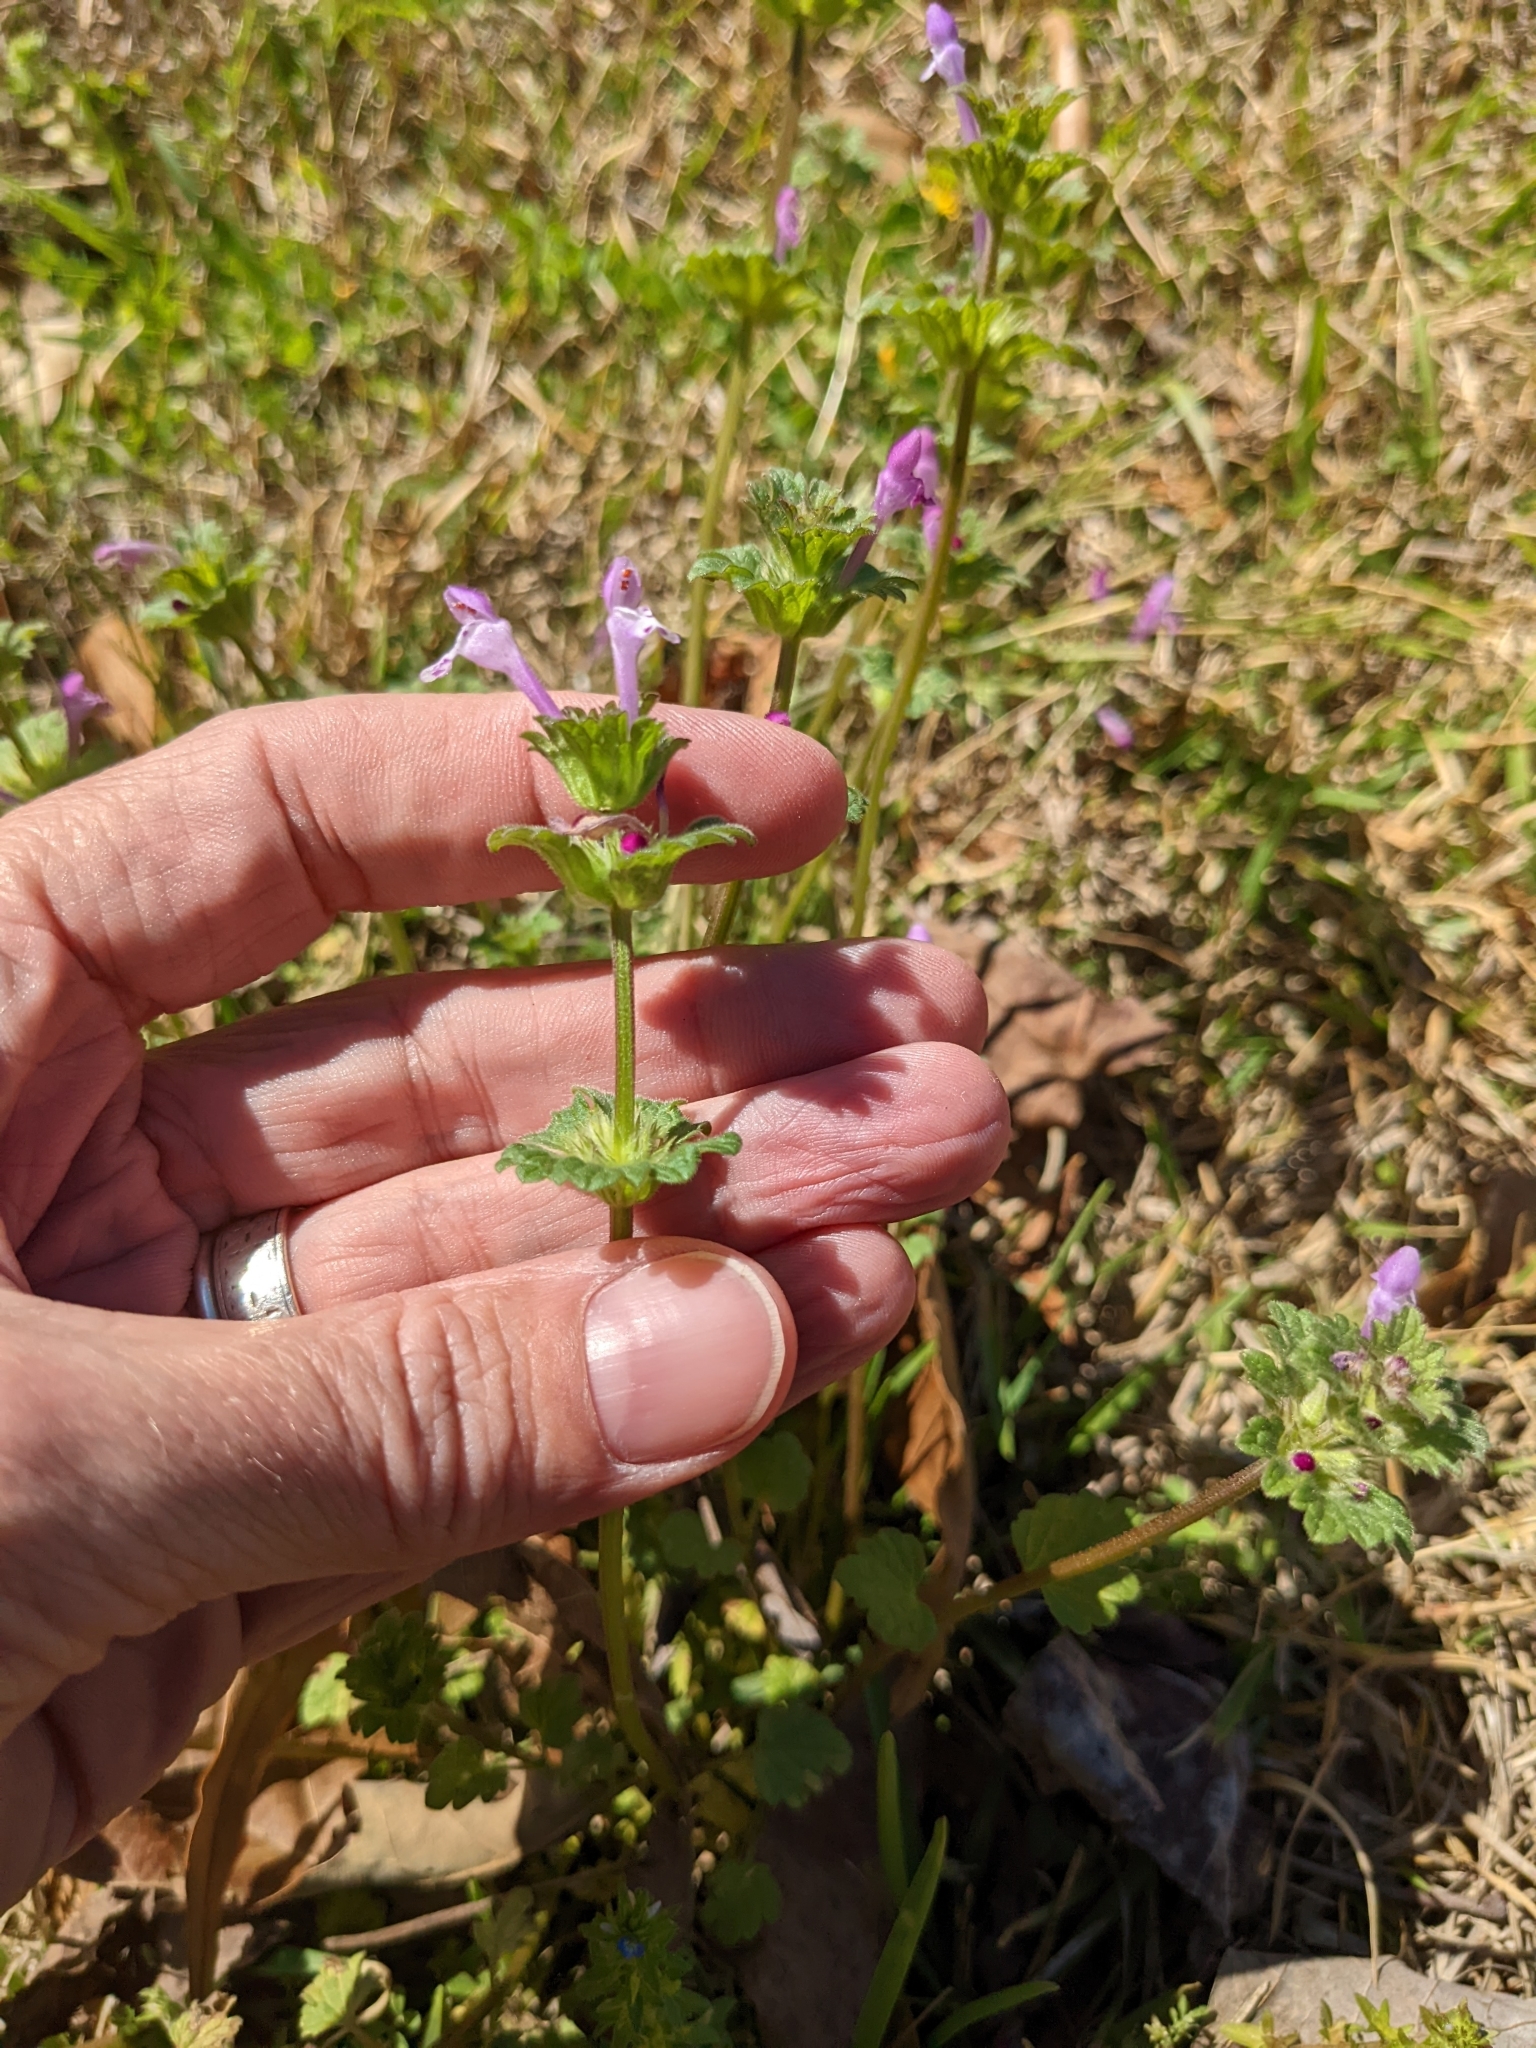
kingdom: Plantae
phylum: Tracheophyta
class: Magnoliopsida
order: Lamiales
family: Lamiaceae
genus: Lamium
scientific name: Lamium amplexicaule
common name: Henbit dead-nettle
